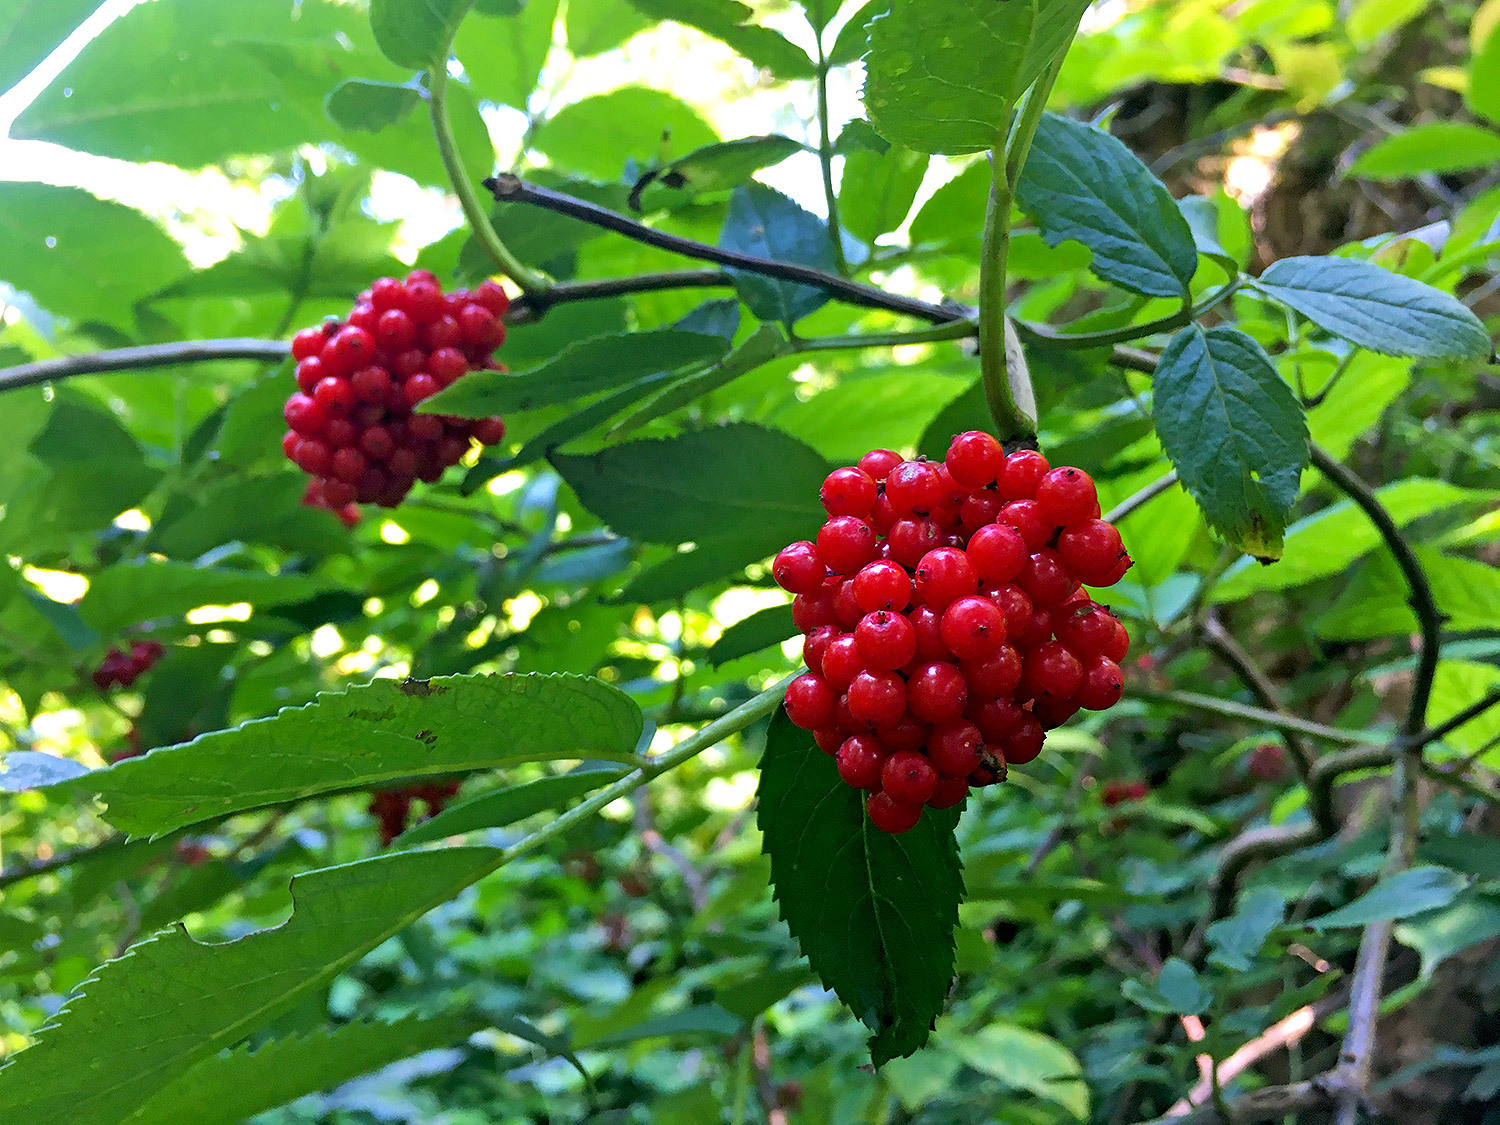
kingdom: Plantae
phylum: Tracheophyta
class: Magnoliopsida
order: Dipsacales
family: Viburnaceae
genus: Sambucus
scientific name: Sambucus racemosa
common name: Red-berried elder
